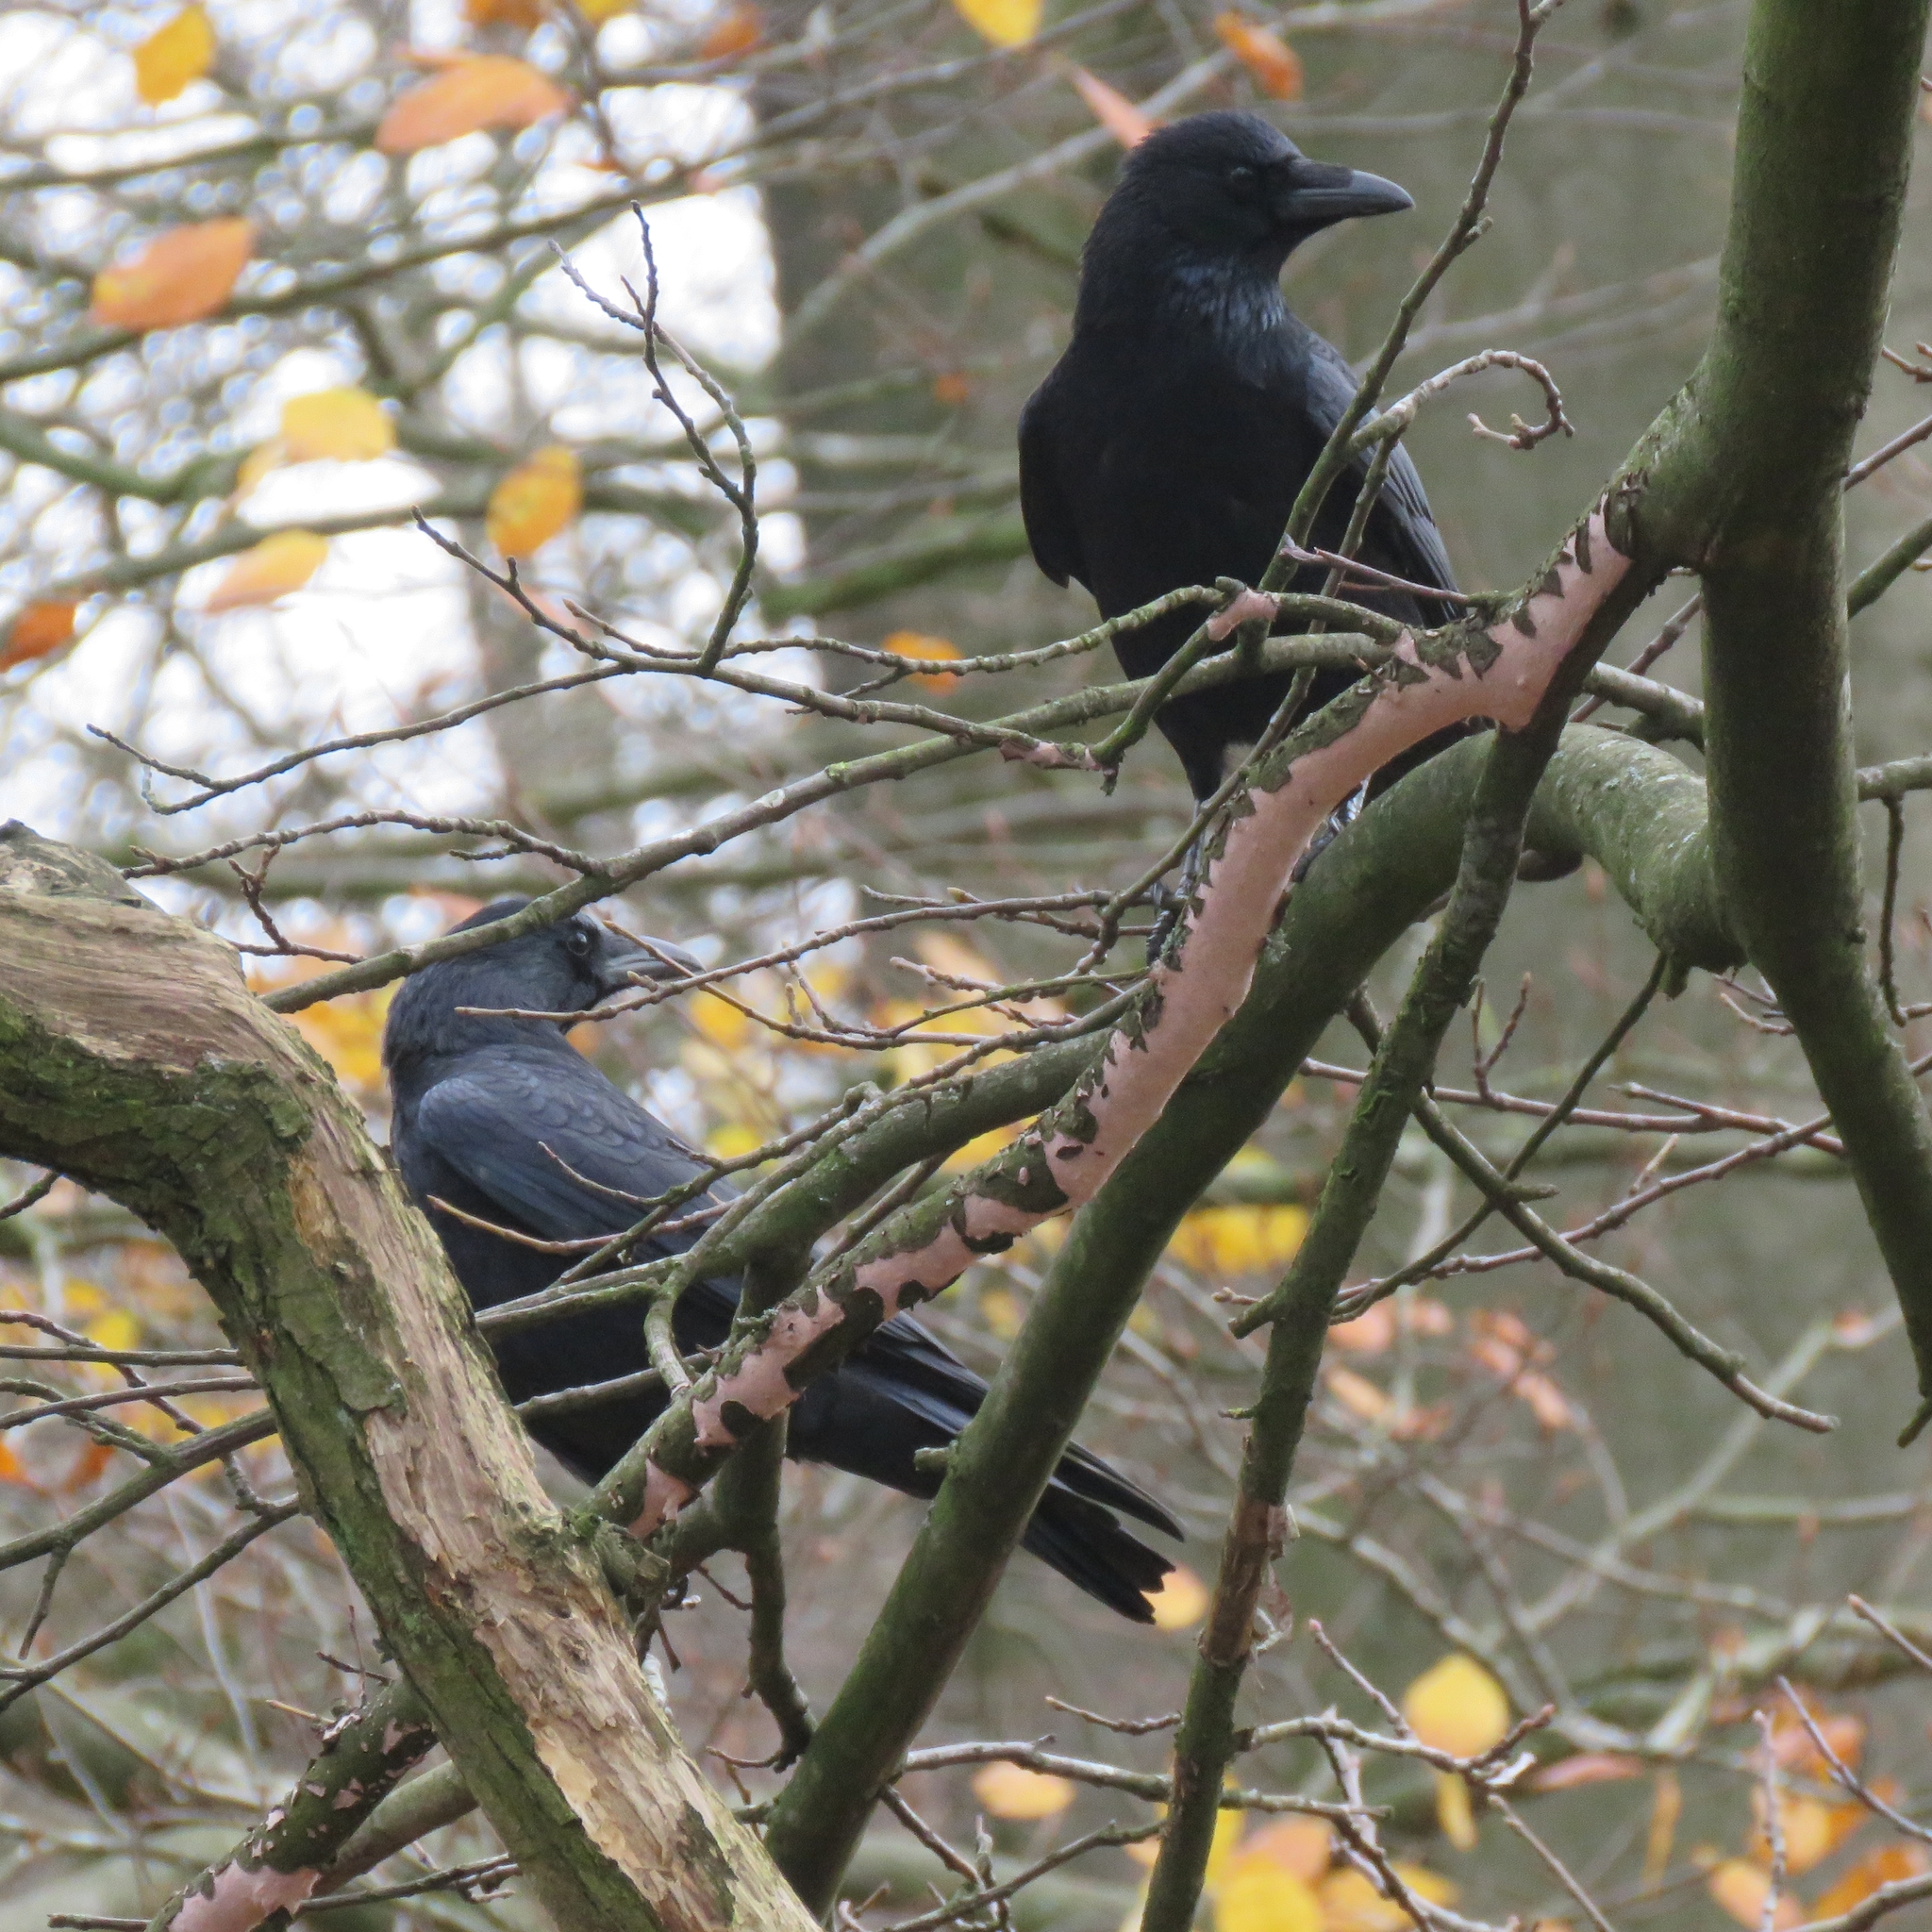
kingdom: Animalia
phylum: Chordata
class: Aves
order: Passeriformes
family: Corvidae
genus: Corvus
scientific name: Corvus corone
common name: Carrion crow
